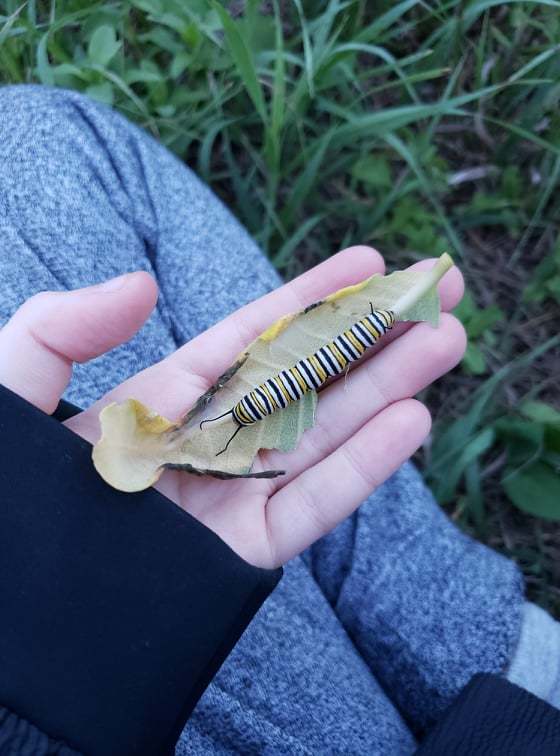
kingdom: Animalia
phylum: Arthropoda
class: Insecta
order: Lepidoptera
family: Nymphalidae
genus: Danaus
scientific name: Danaus plexippus
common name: Monarch
